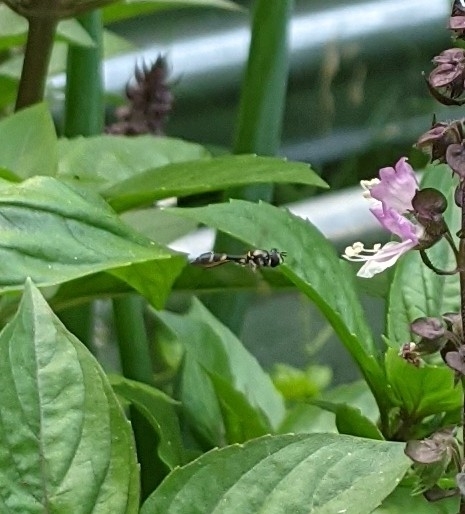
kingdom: Animalia
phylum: Arthropoda
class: Insecta
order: Diptera
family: Syrphidae
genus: Dioprosopa
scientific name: Dioprosopa clavatus
